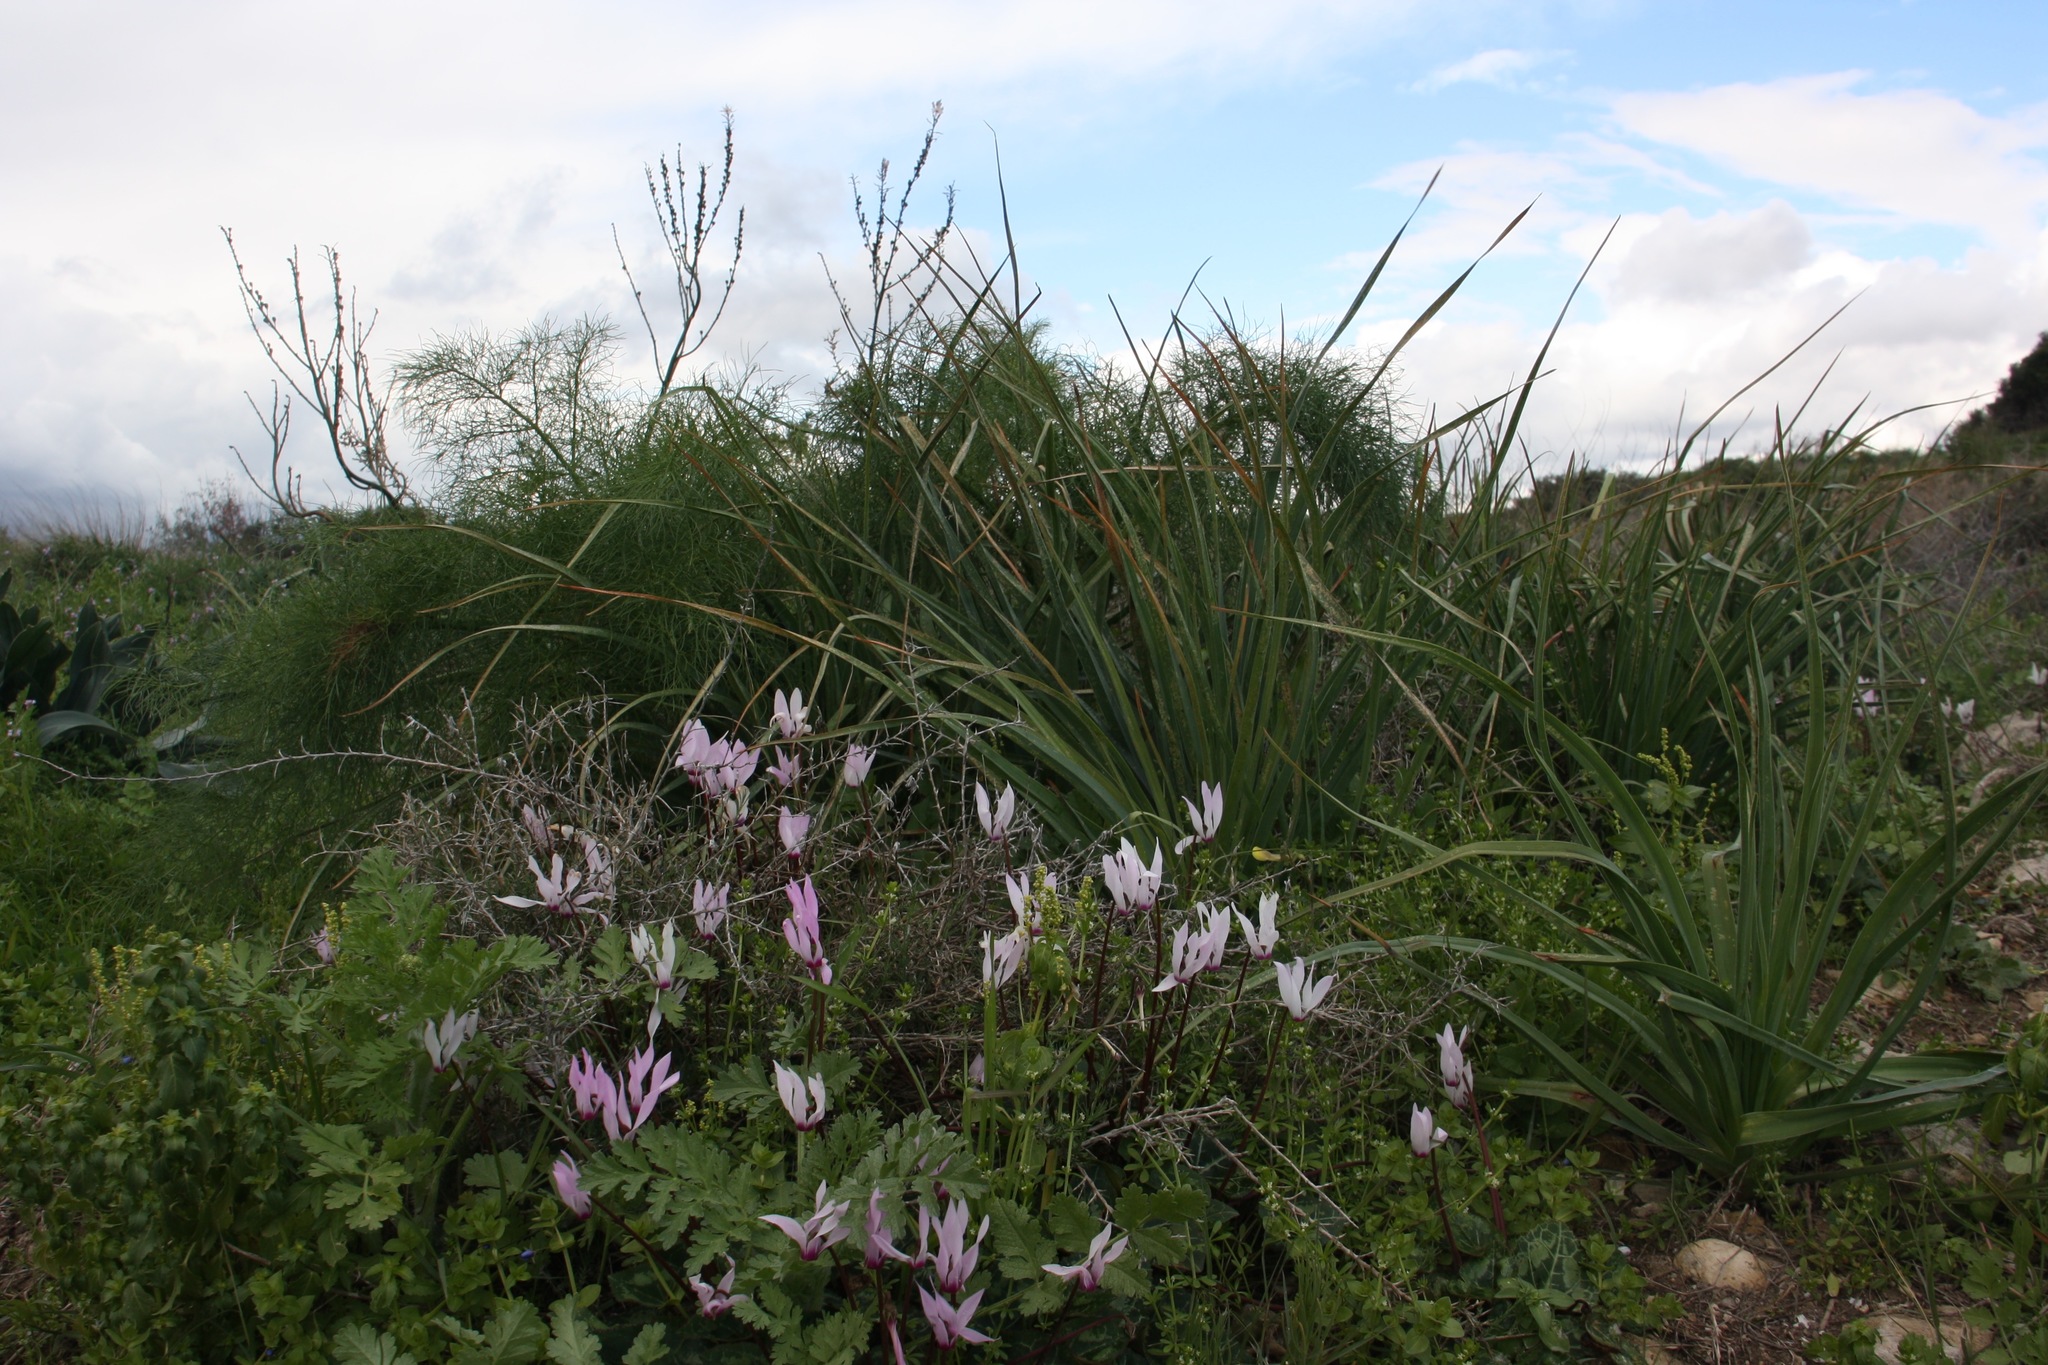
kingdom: Plantae
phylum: Tracheophyta
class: Magnoliopsida
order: Ericales
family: Primulaceae
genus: Cyclamen
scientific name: Cyclamen persicum
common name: Florist's cyclamen
